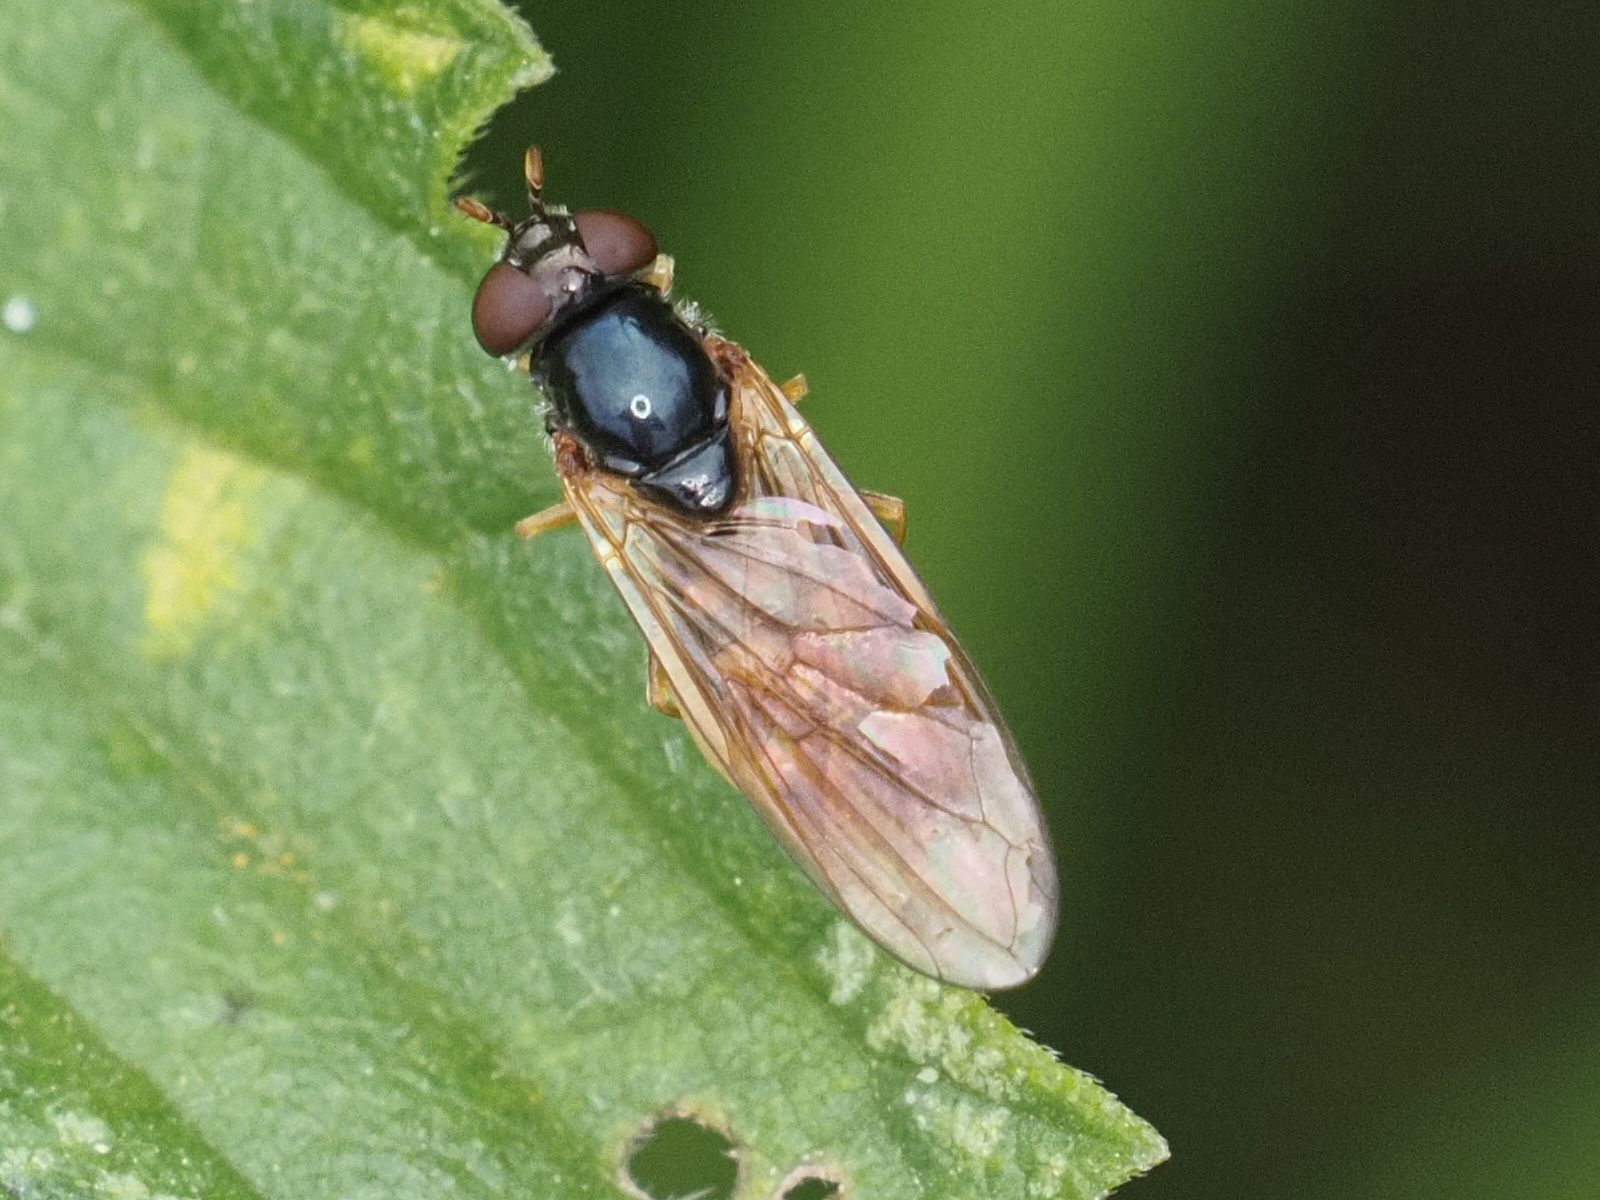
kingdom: Animalia
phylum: Arthropoda
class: Insecta
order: Diptera
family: Syrphidae
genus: Melanostoma
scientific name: Melanostoma mellina
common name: Hover fly
